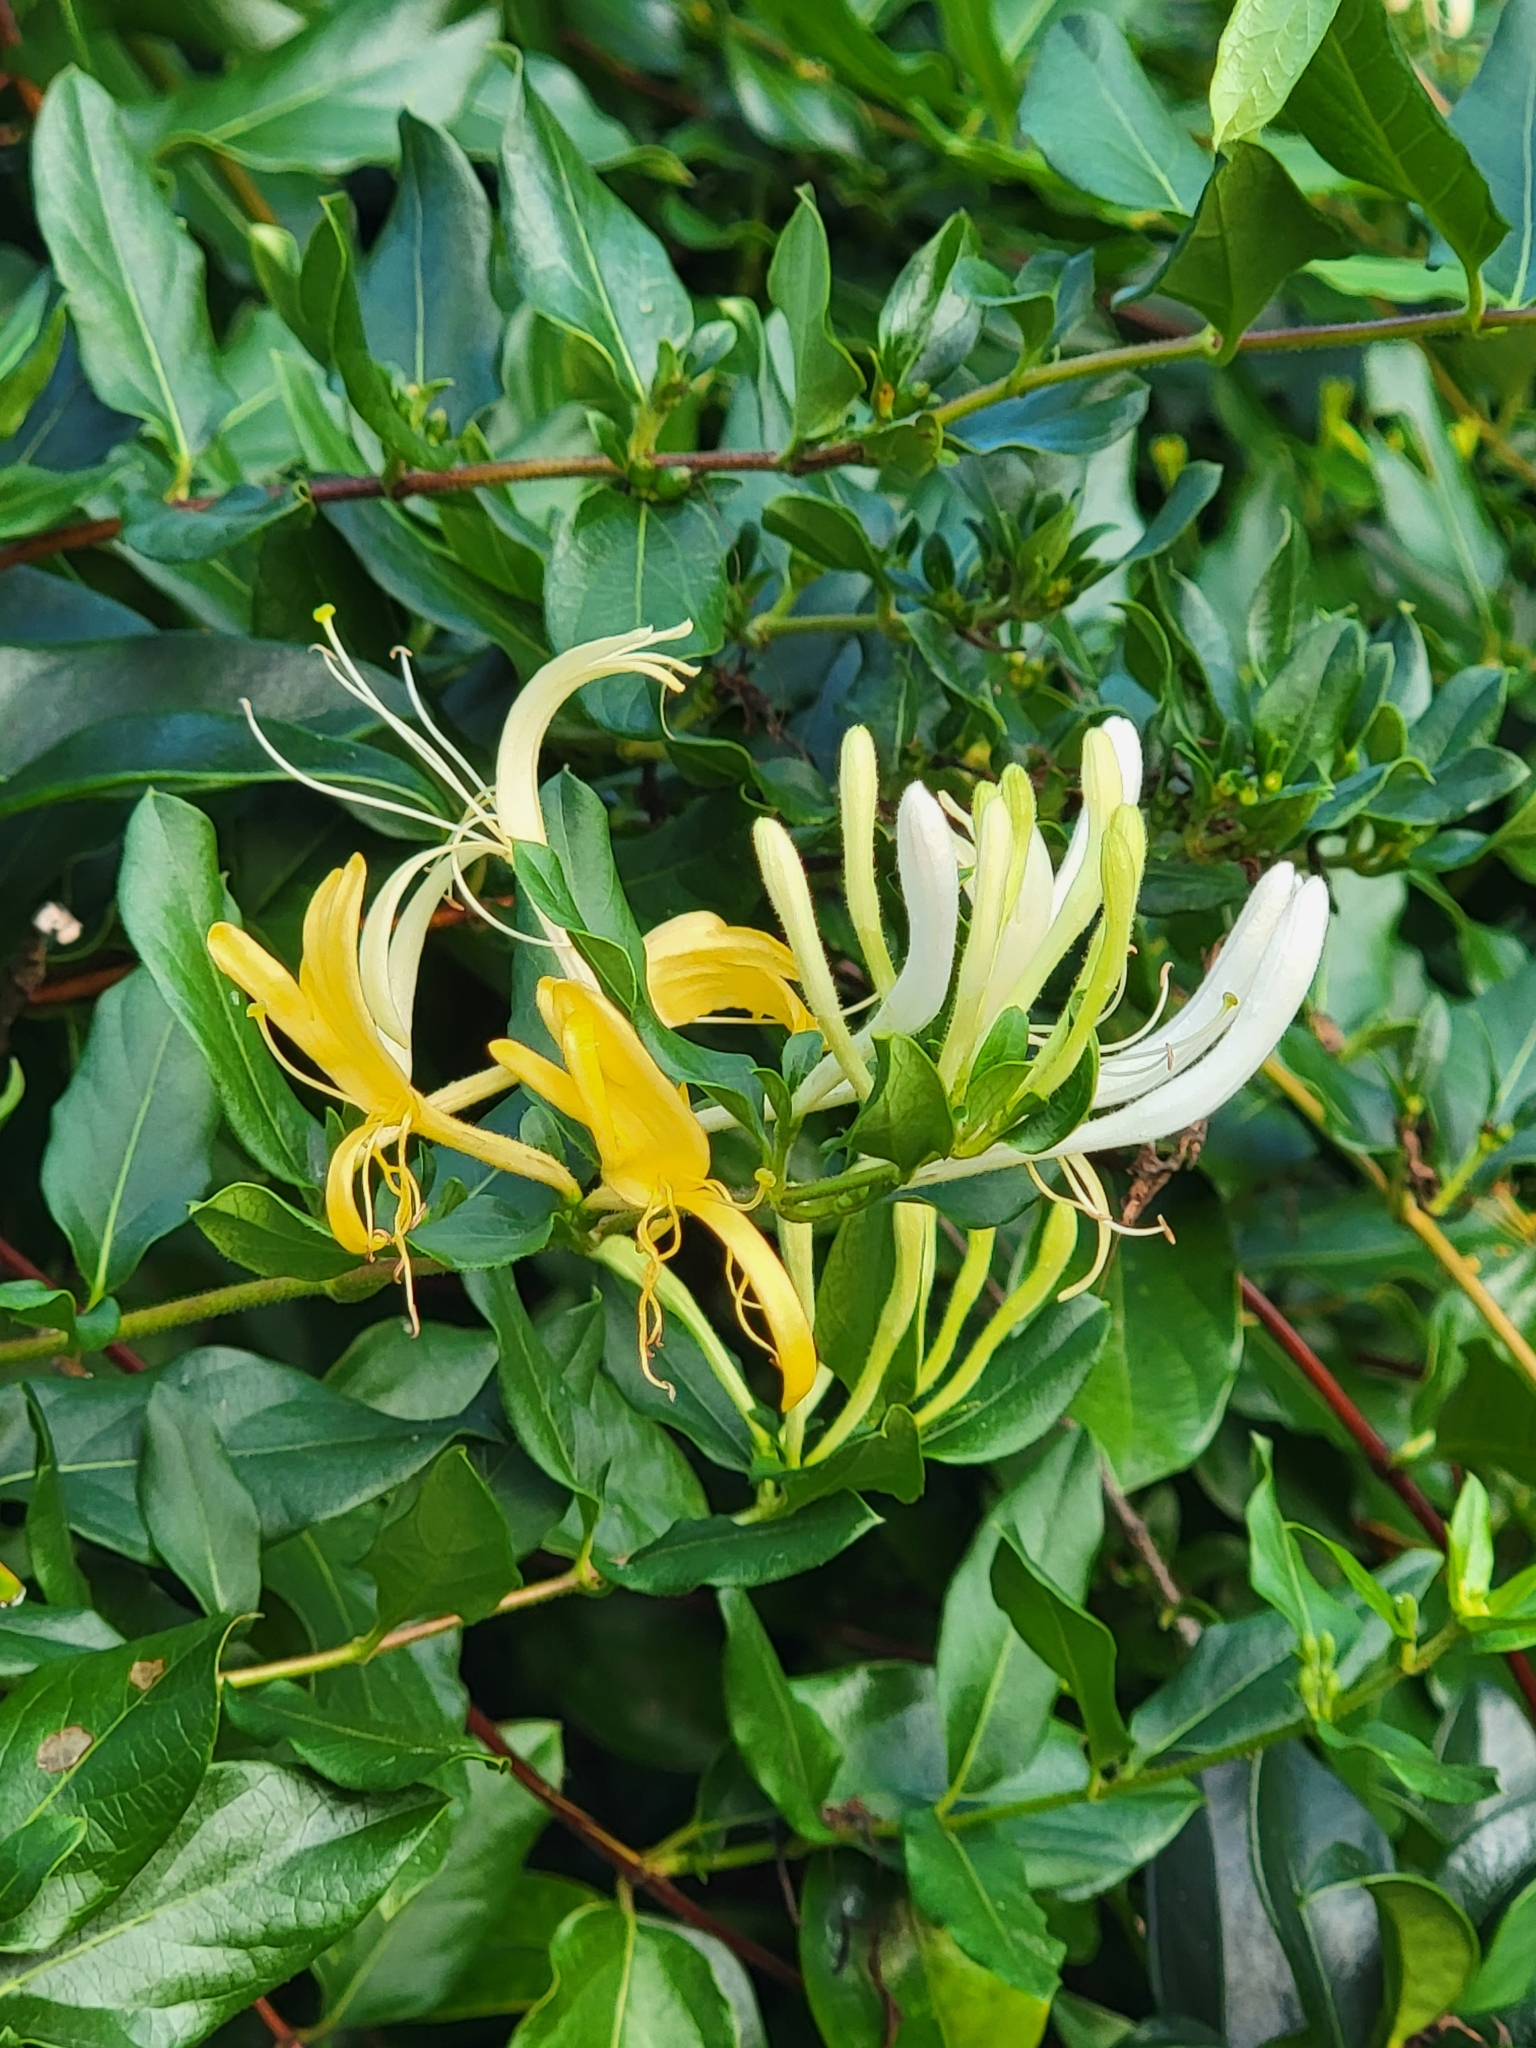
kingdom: Plantae
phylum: Tracheophyta
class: Magnoliopsida
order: Dipsacales
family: Caprifoliaceae
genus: Lonicera
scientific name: Lonicera japonica
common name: Japanese honeysuckle
